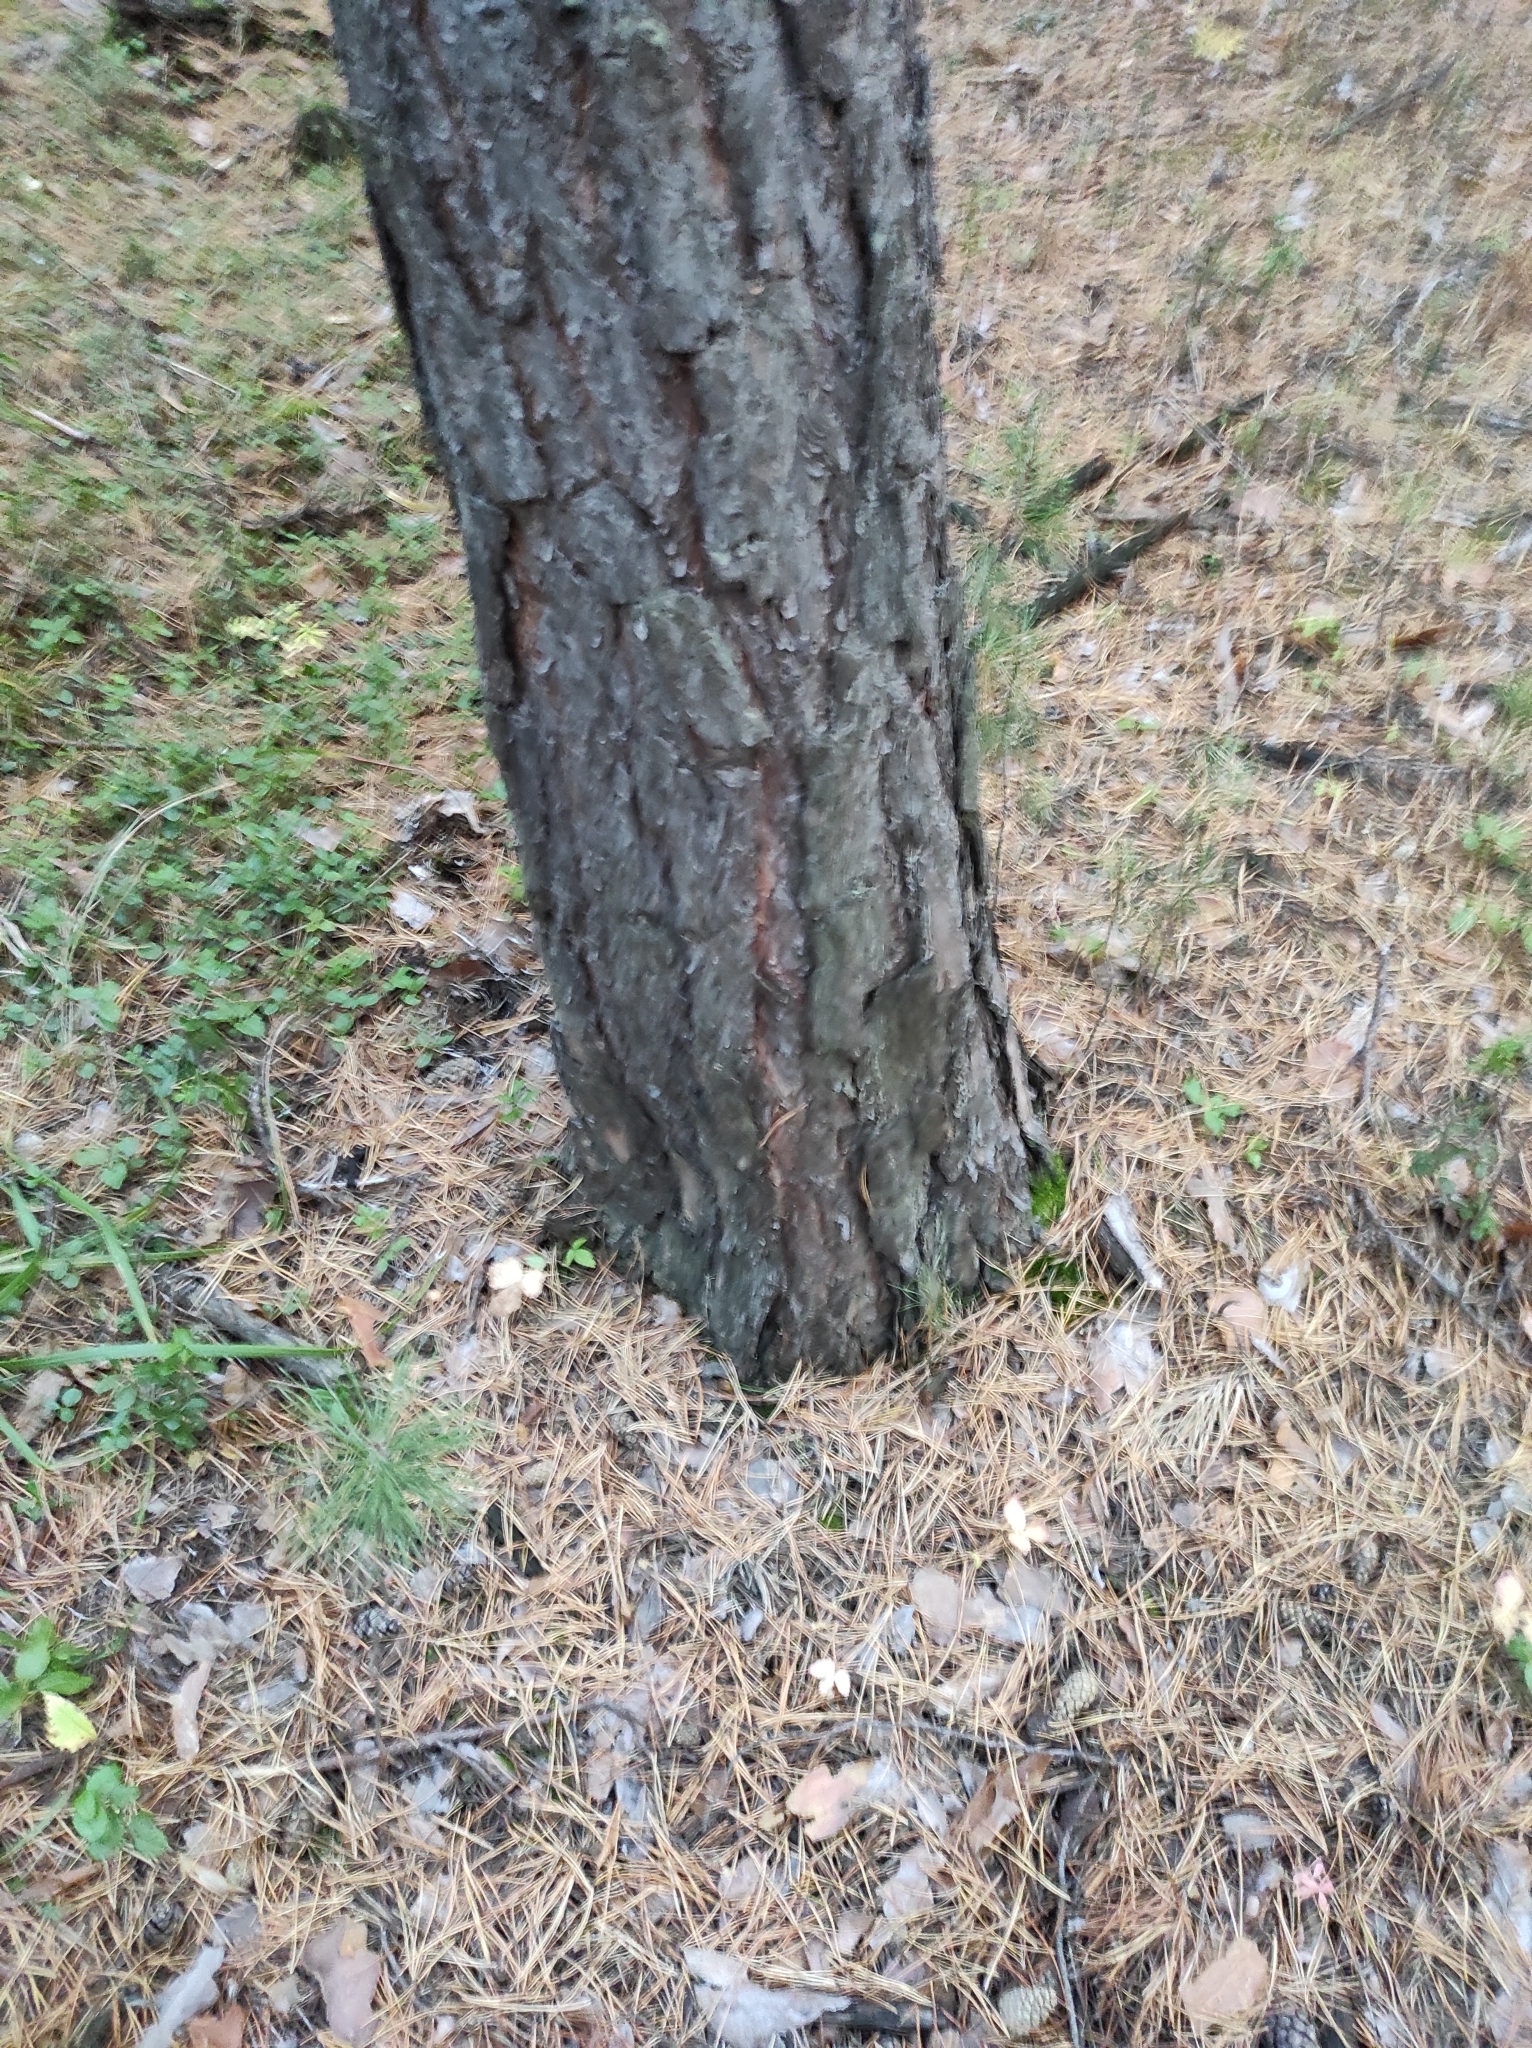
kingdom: Plantae
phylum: Tracheophyta
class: Pinopsida
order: Pinales
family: Pinaceae
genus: Pinus
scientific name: Pinus sylvestris
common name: Scots pine
